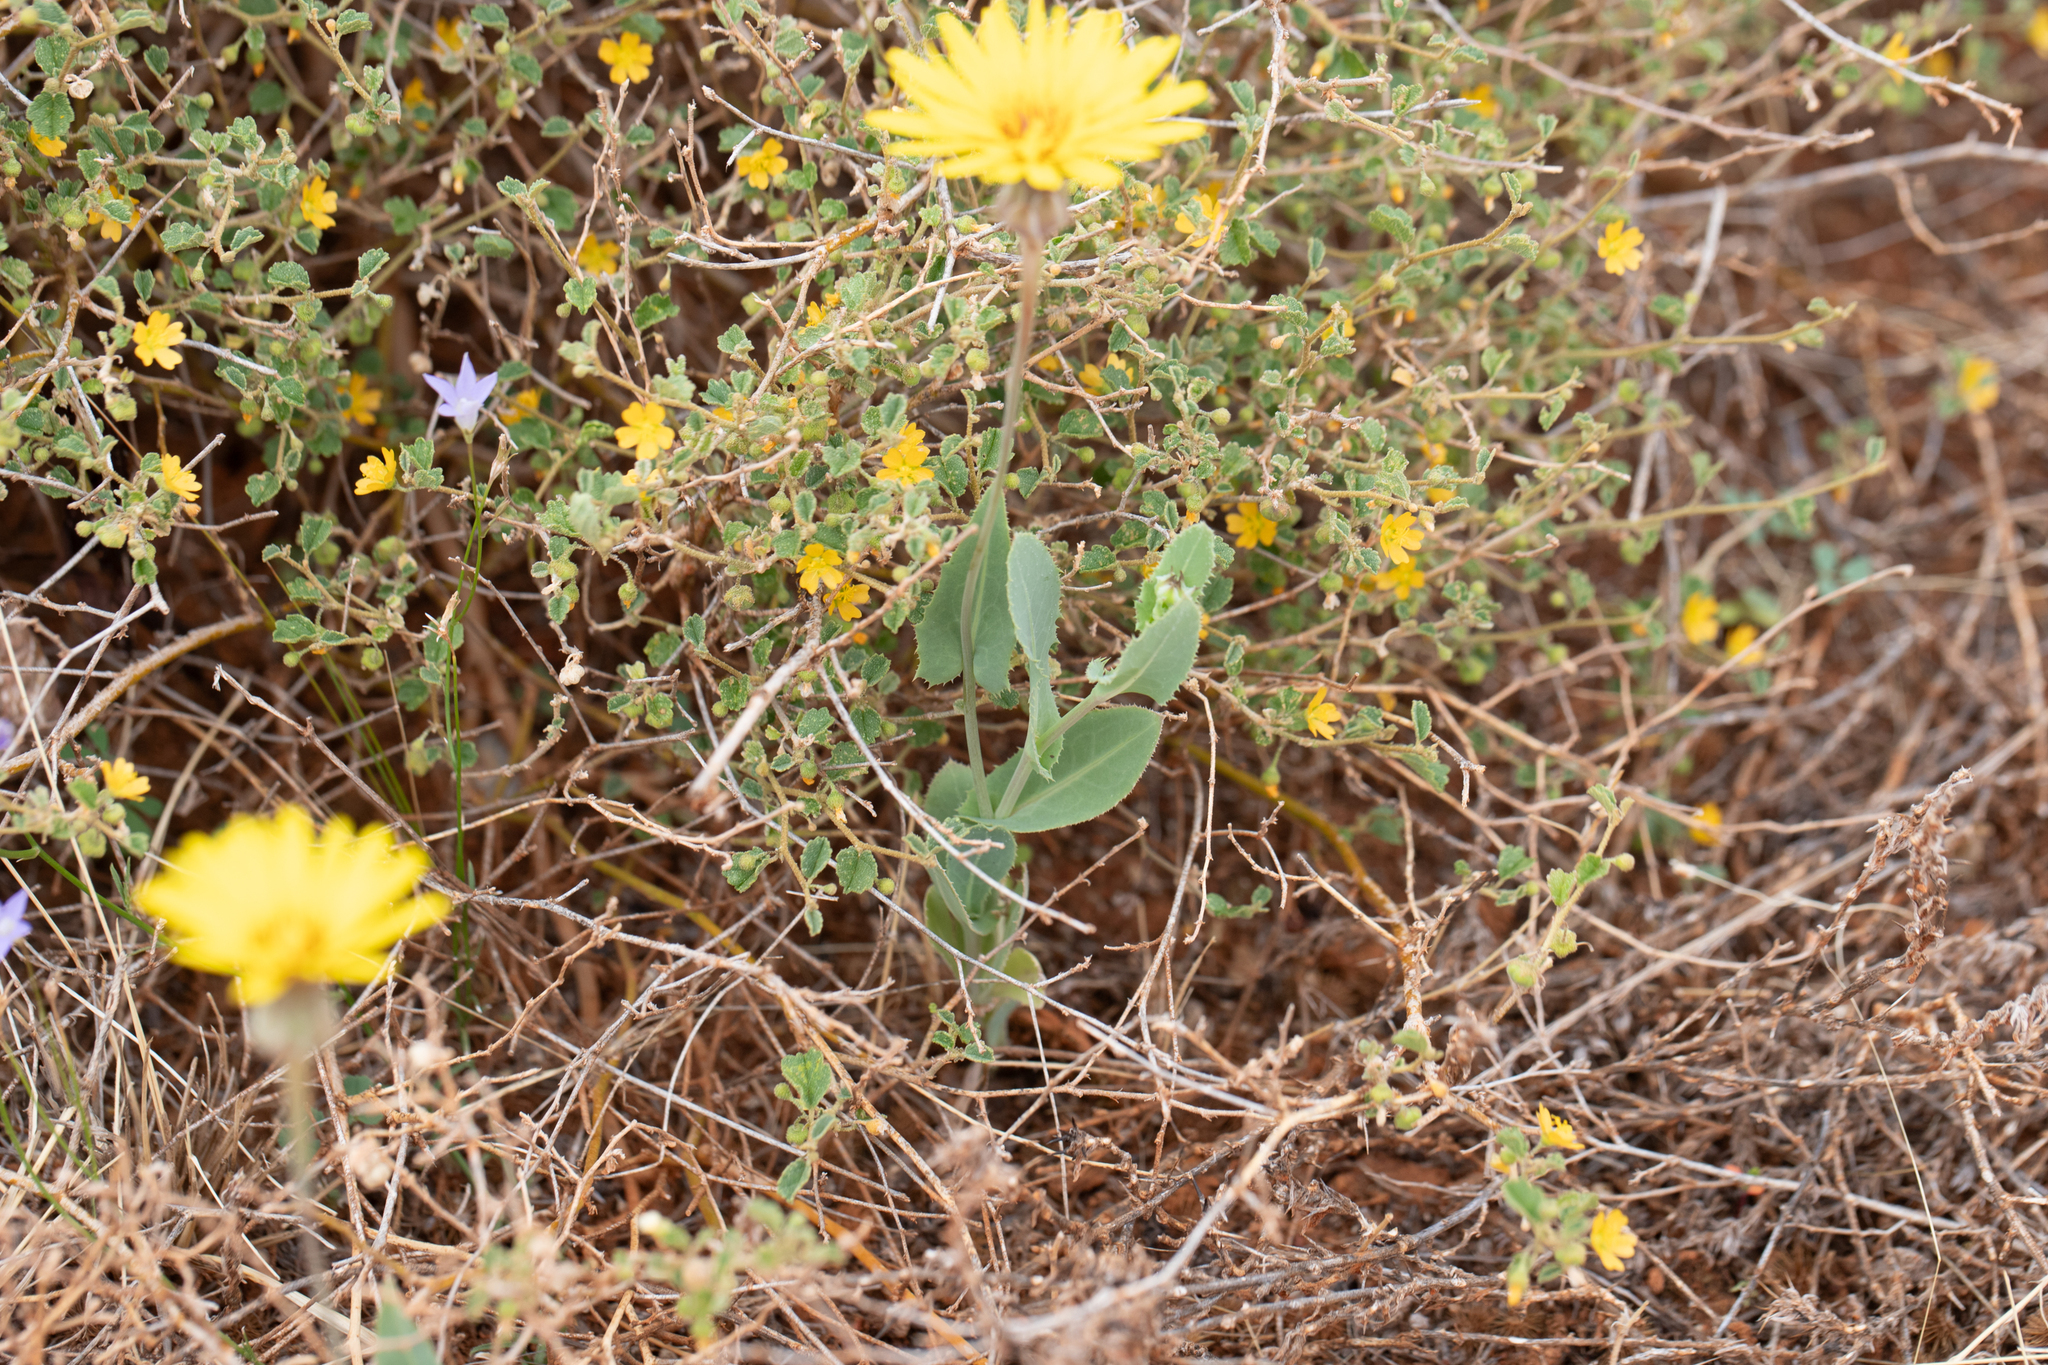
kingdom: Plantae
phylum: Tracheophyta
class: Magnoliopsida
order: Asterales
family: Asteraceae
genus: Reichardia
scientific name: Reichardia tingitana
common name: Reichardia
